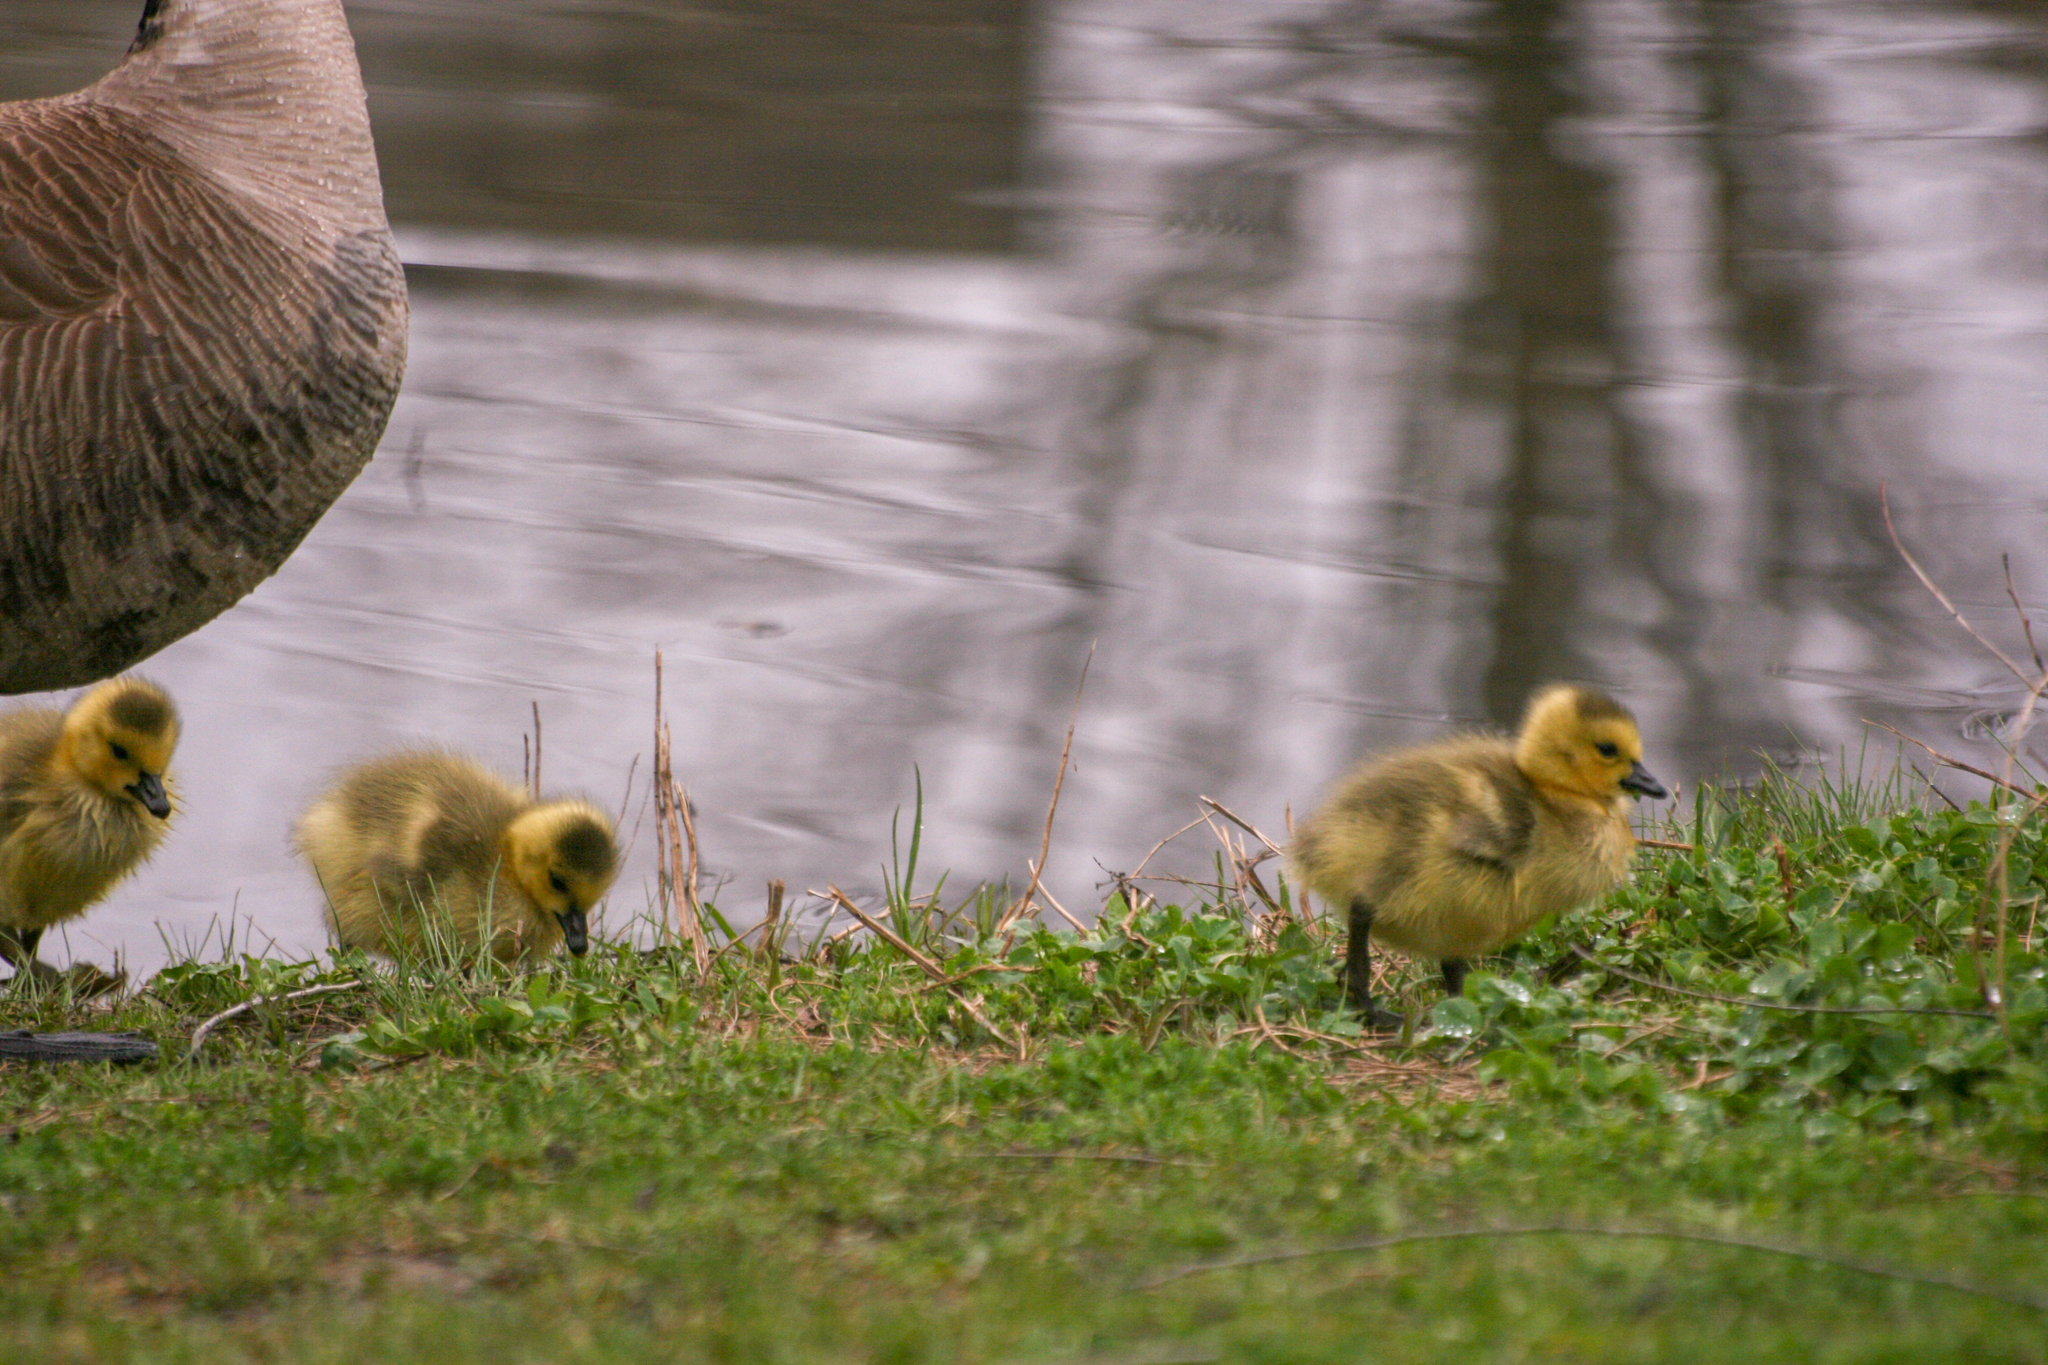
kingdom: Animalia
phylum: Chordata
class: Aves
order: Anseriformes
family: Anatidae
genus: Branta
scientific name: Branta canadensis
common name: Canada goose
